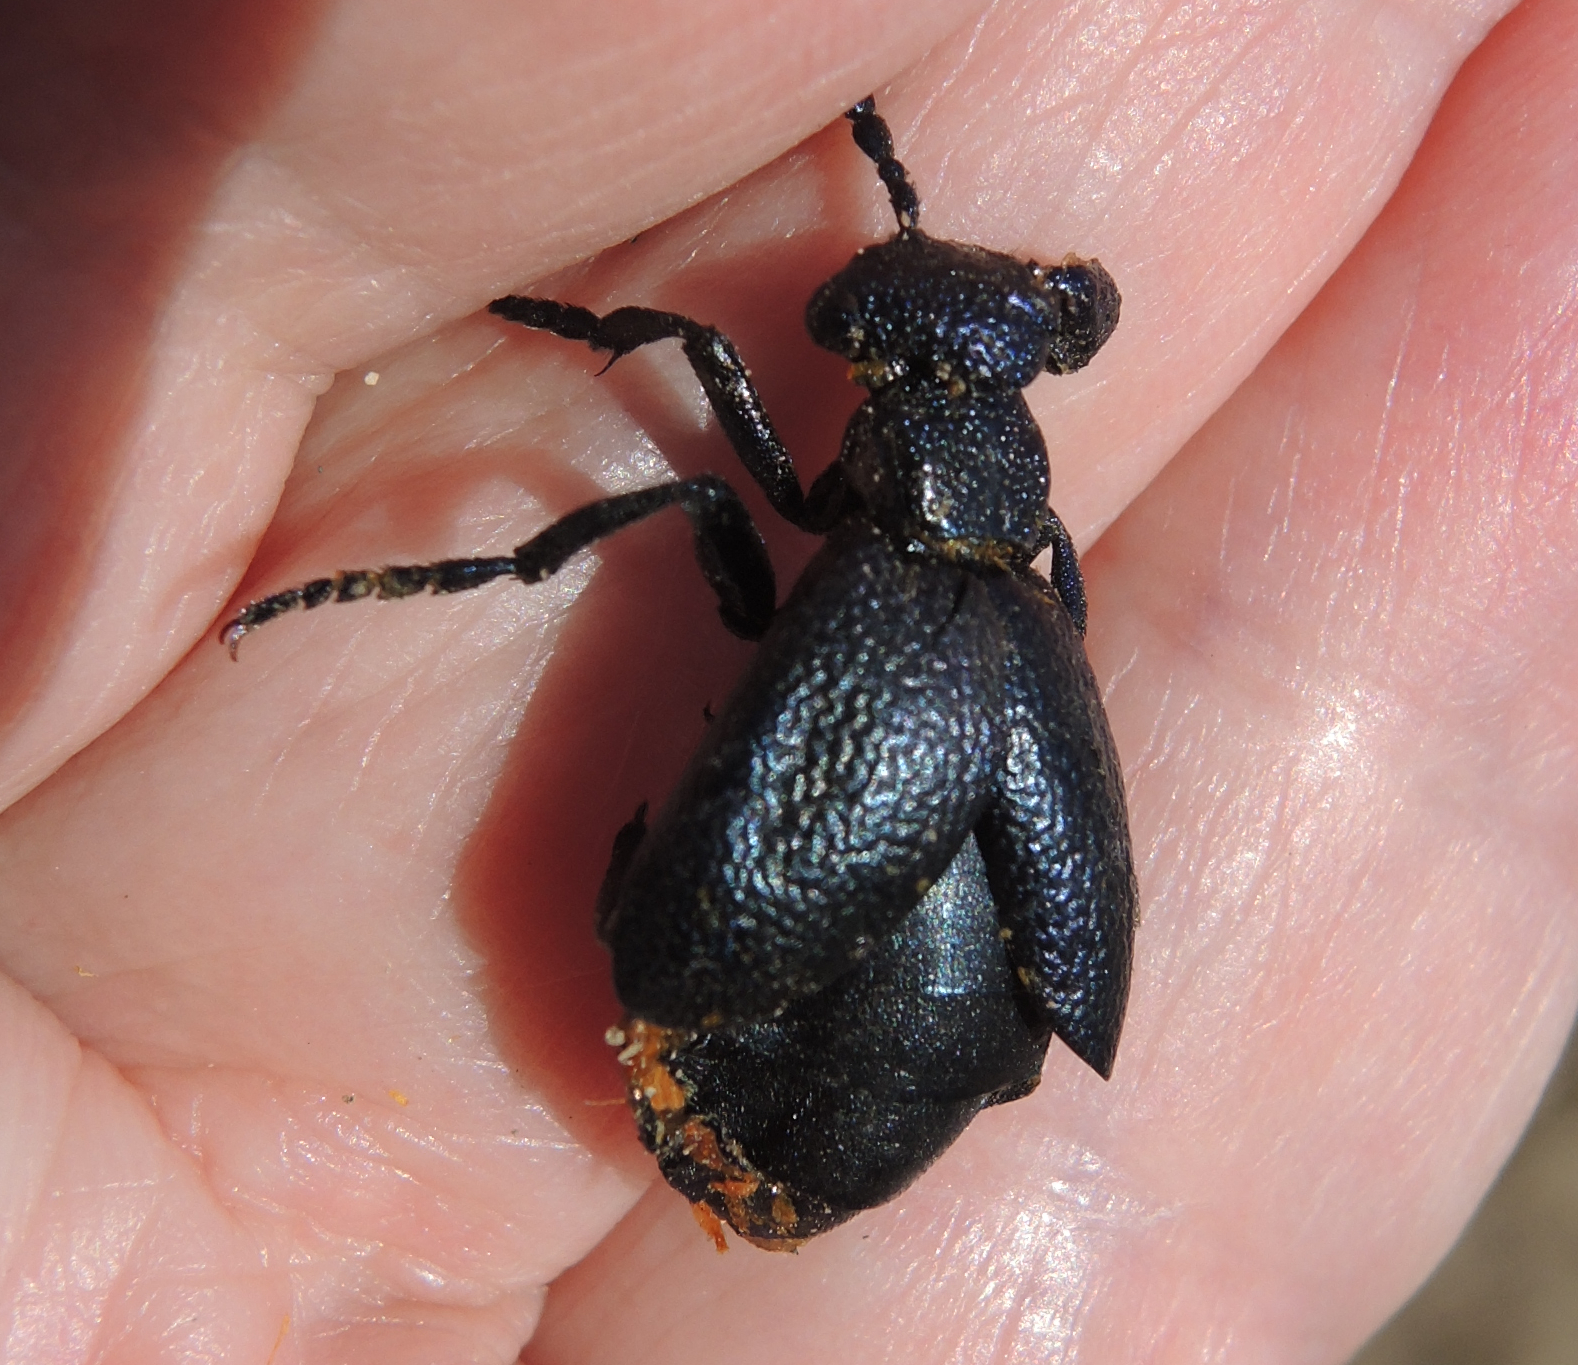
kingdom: Animalia
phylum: Arthropoda
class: Insecta
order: Coleoptera
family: Meloidae
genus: Meloe
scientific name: Meloe proscarabaeus
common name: Black oil-beetle
